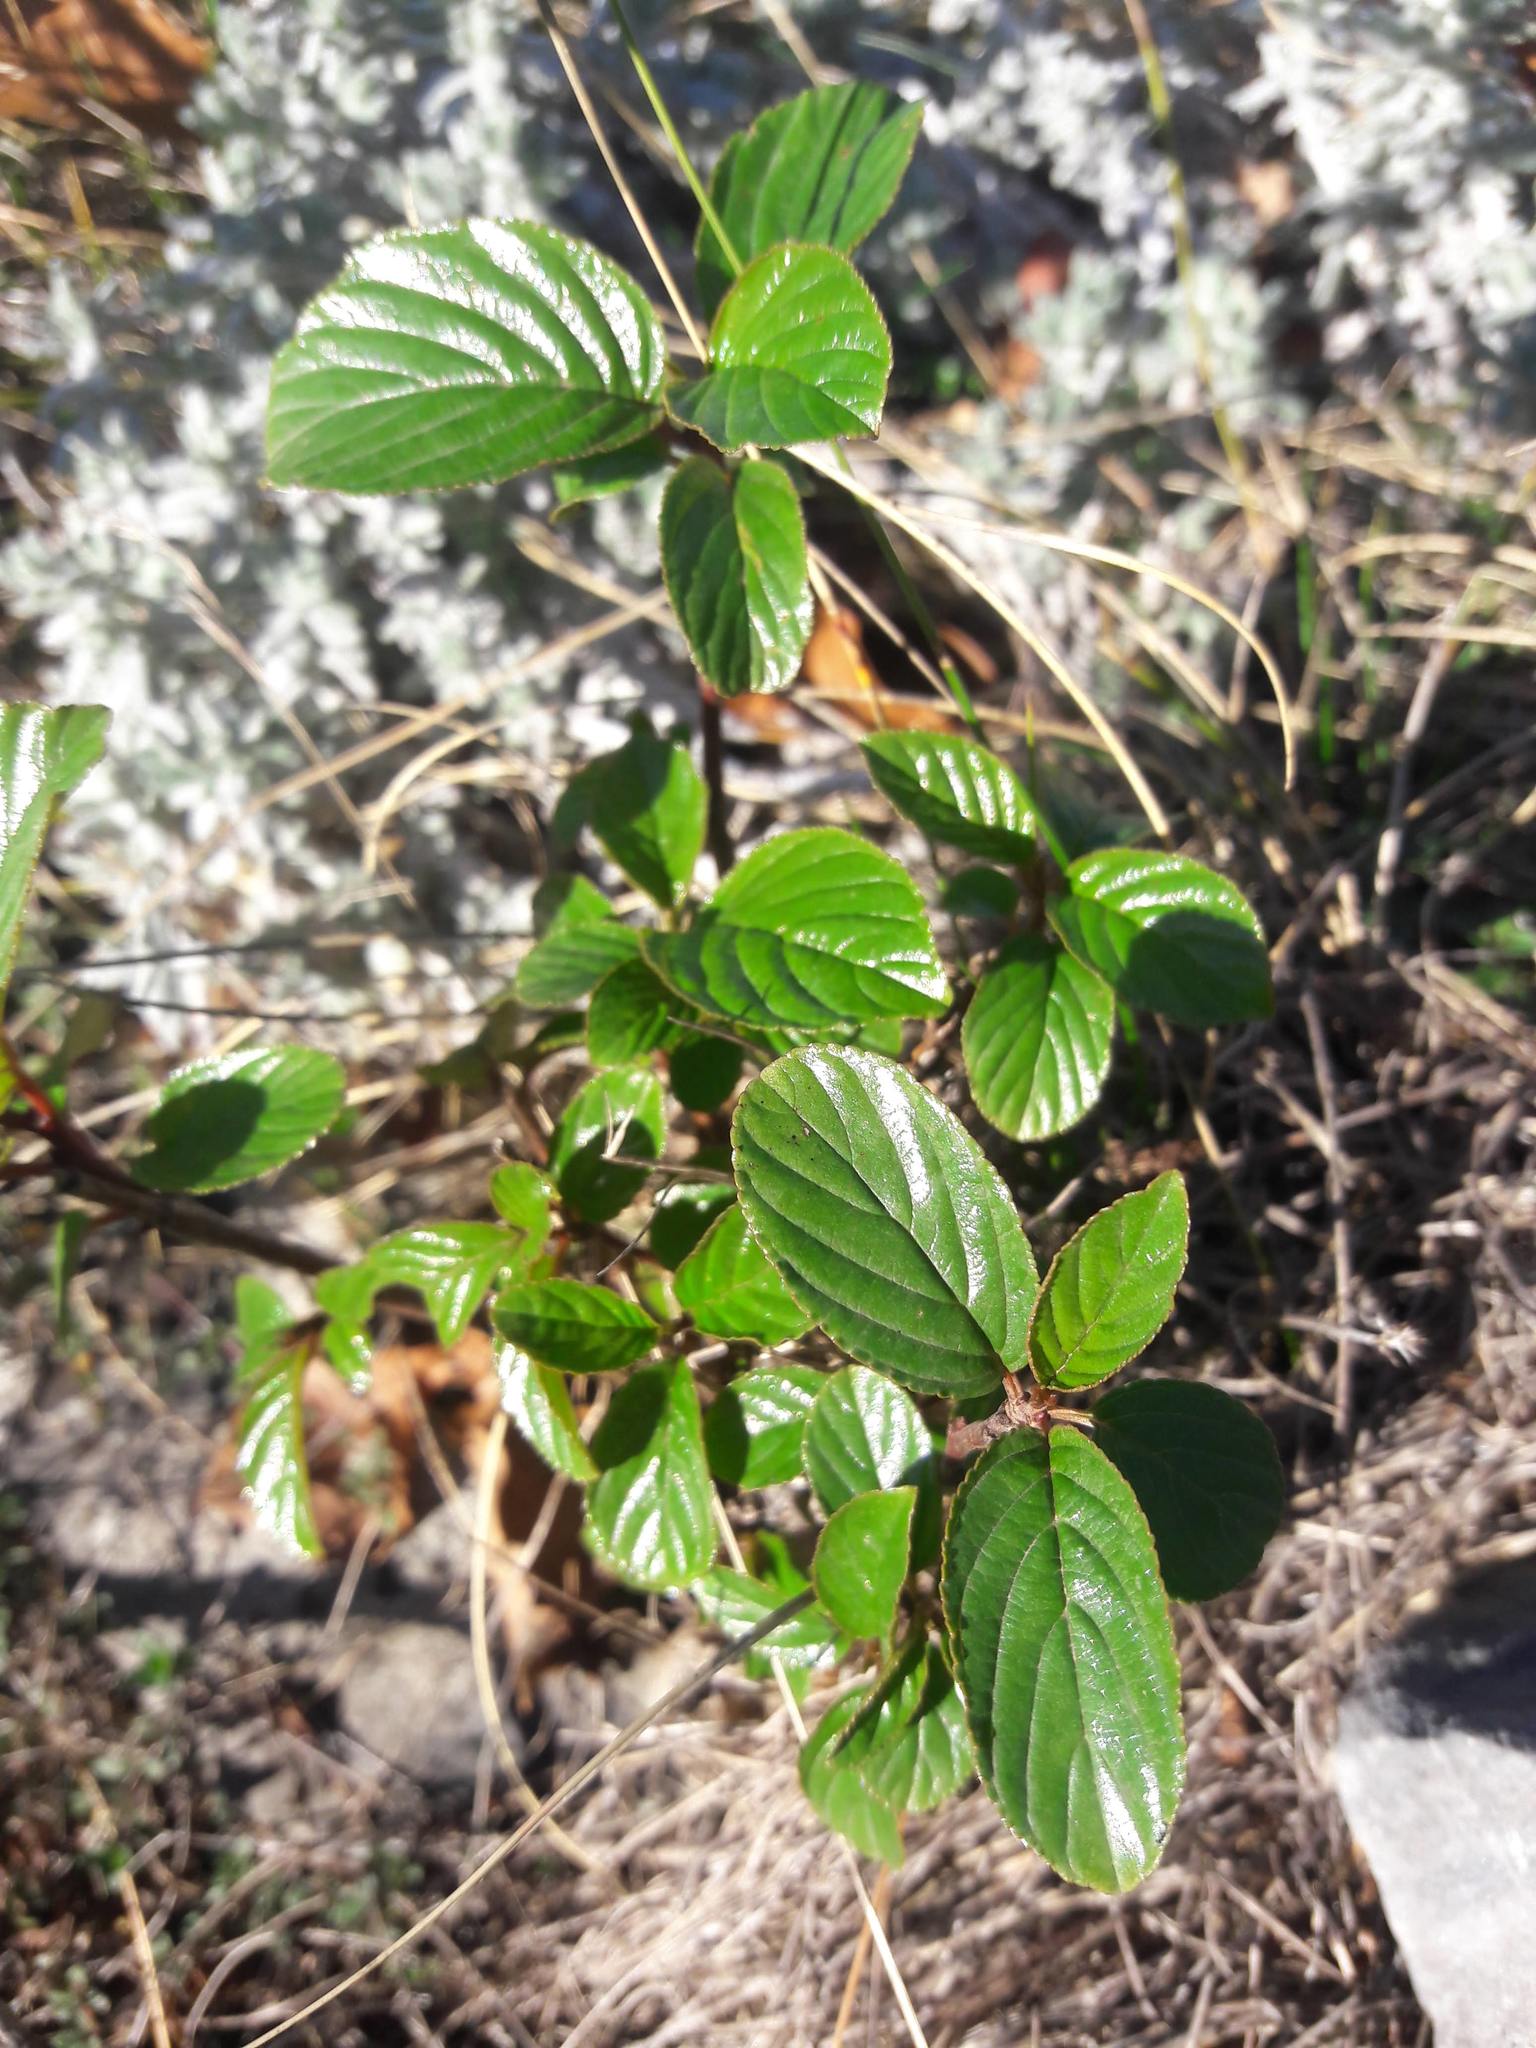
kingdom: Plantae
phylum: Tracheophyta
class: Magnoliopsida
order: Rosales
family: Rhamnaceae
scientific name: Rhamnaceae
